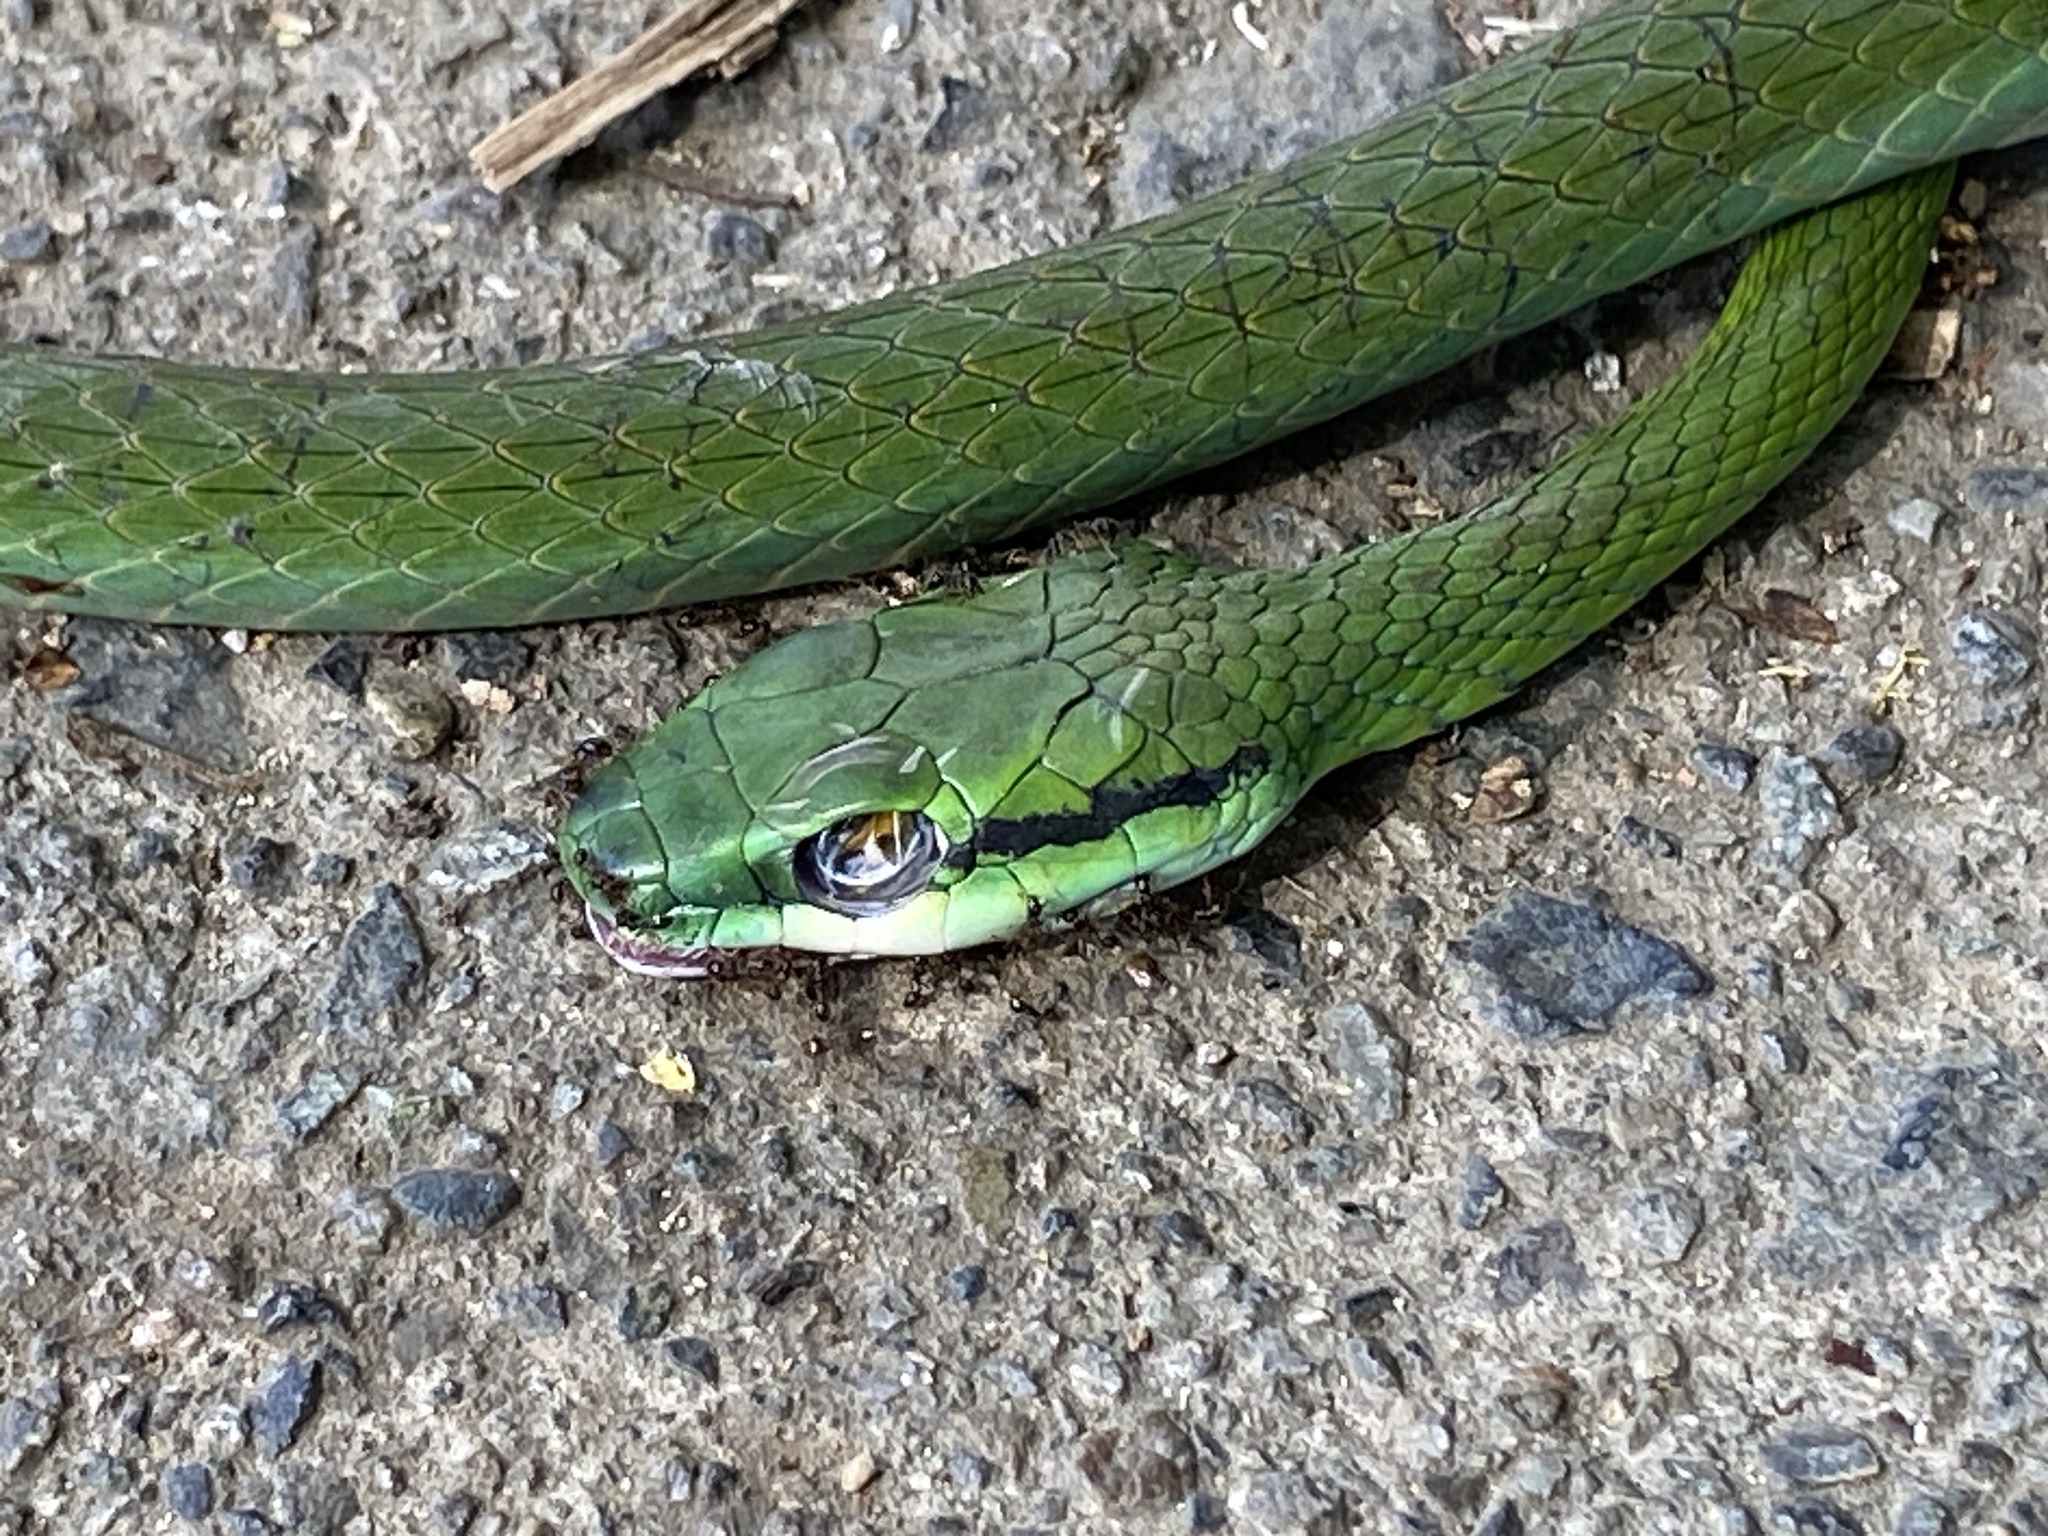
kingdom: Animalia
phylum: Chordata
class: Squamata
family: Colubridae
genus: Leptophis
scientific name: Leptophis ahaetulla
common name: Parrot snake
